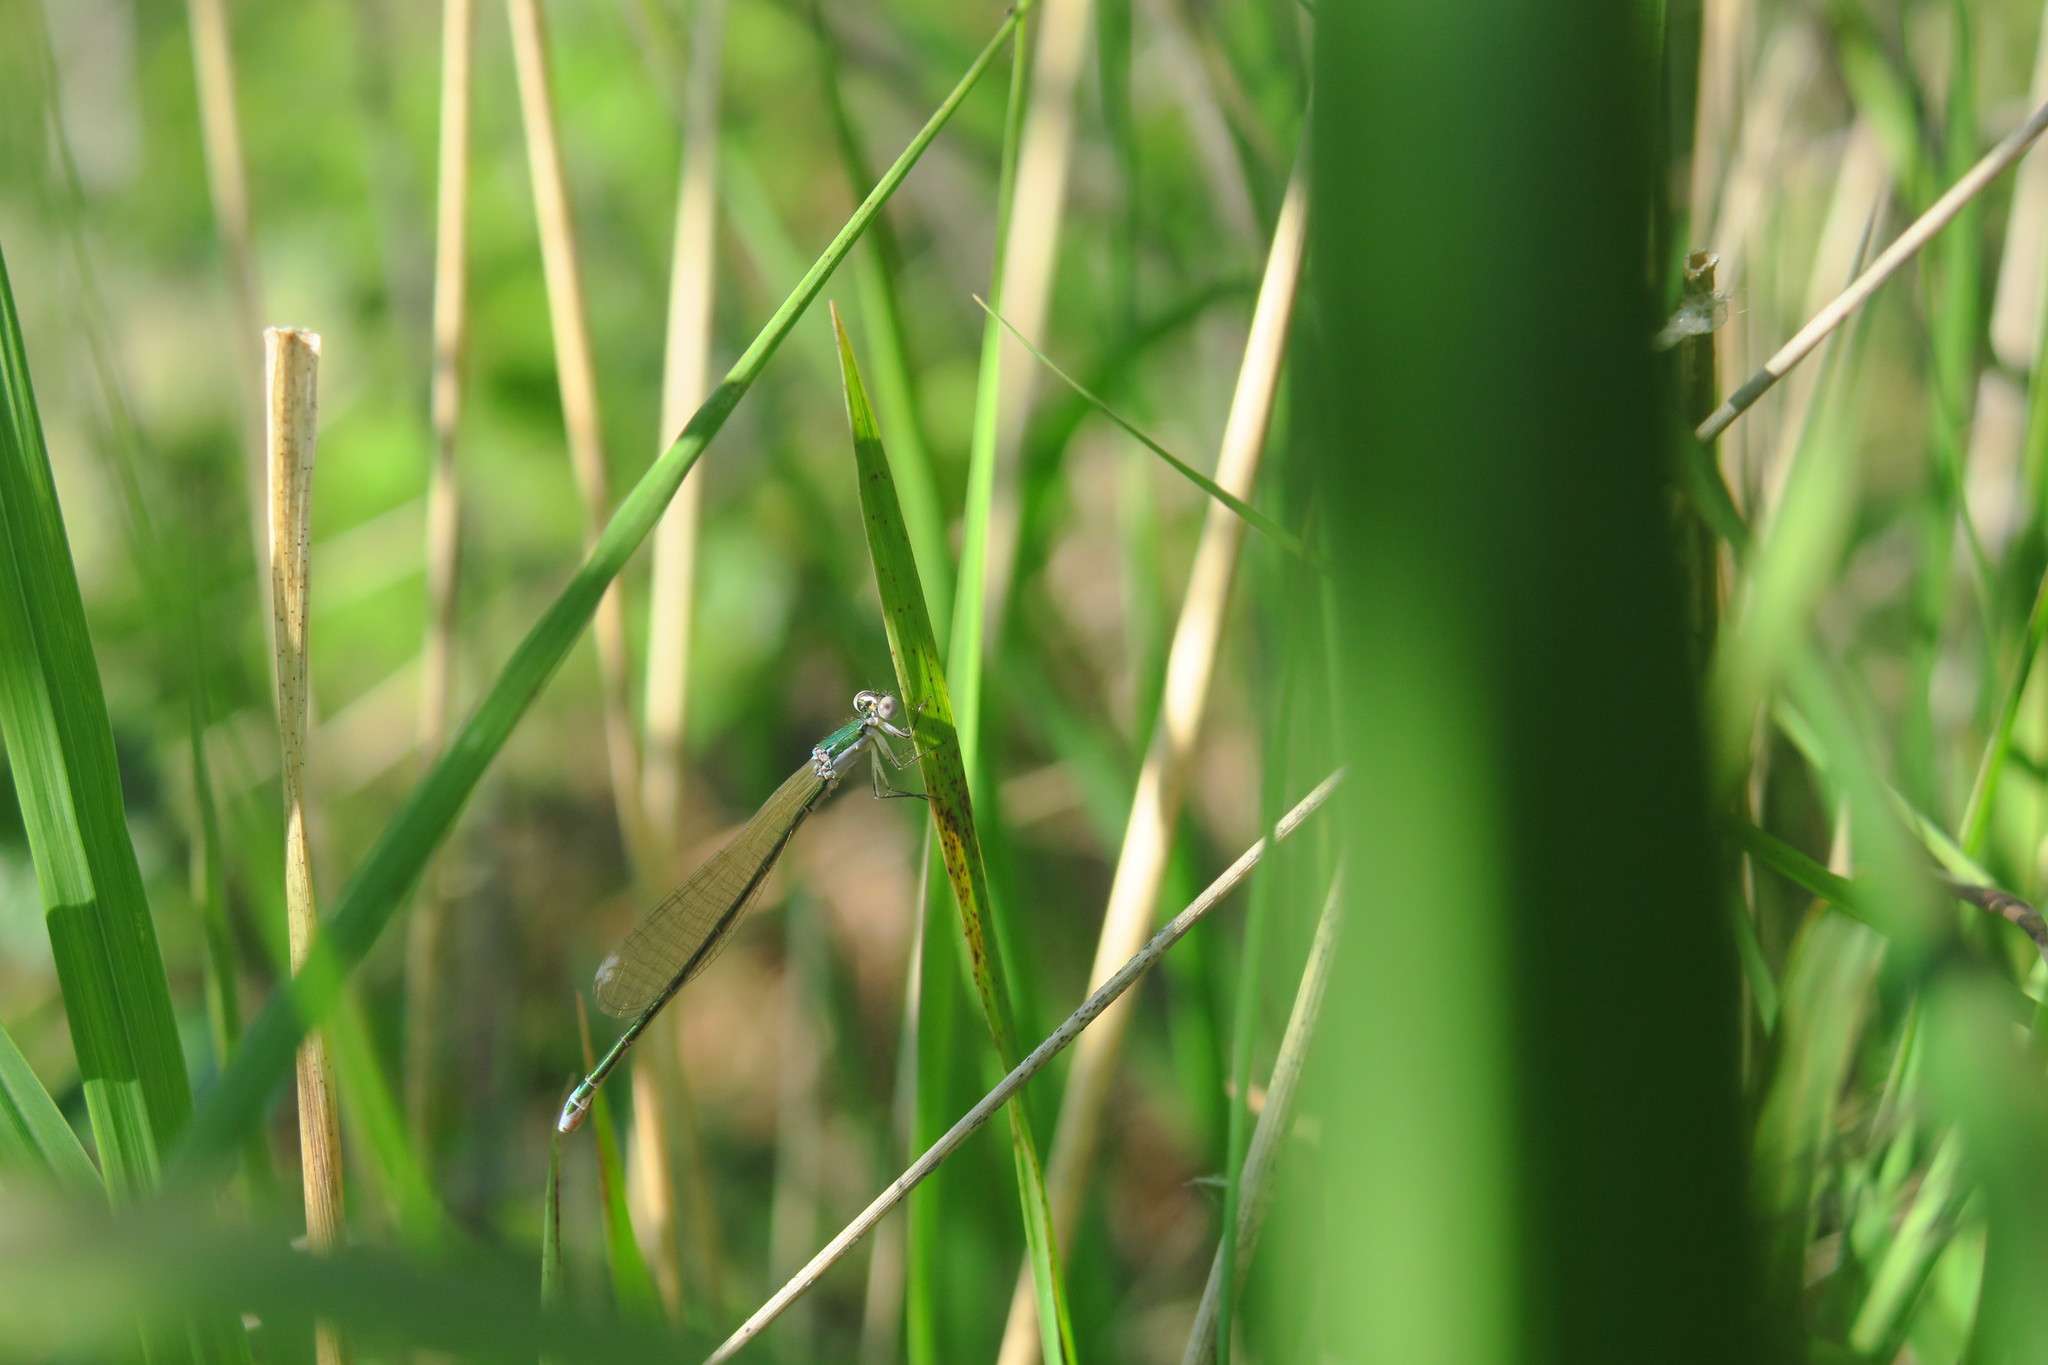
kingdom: Animalia
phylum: Arthropoda
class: Insecta
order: Odonata
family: Coenagrionidae
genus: Nehalennia
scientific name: Nehalennia speciosa
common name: Sedgling
